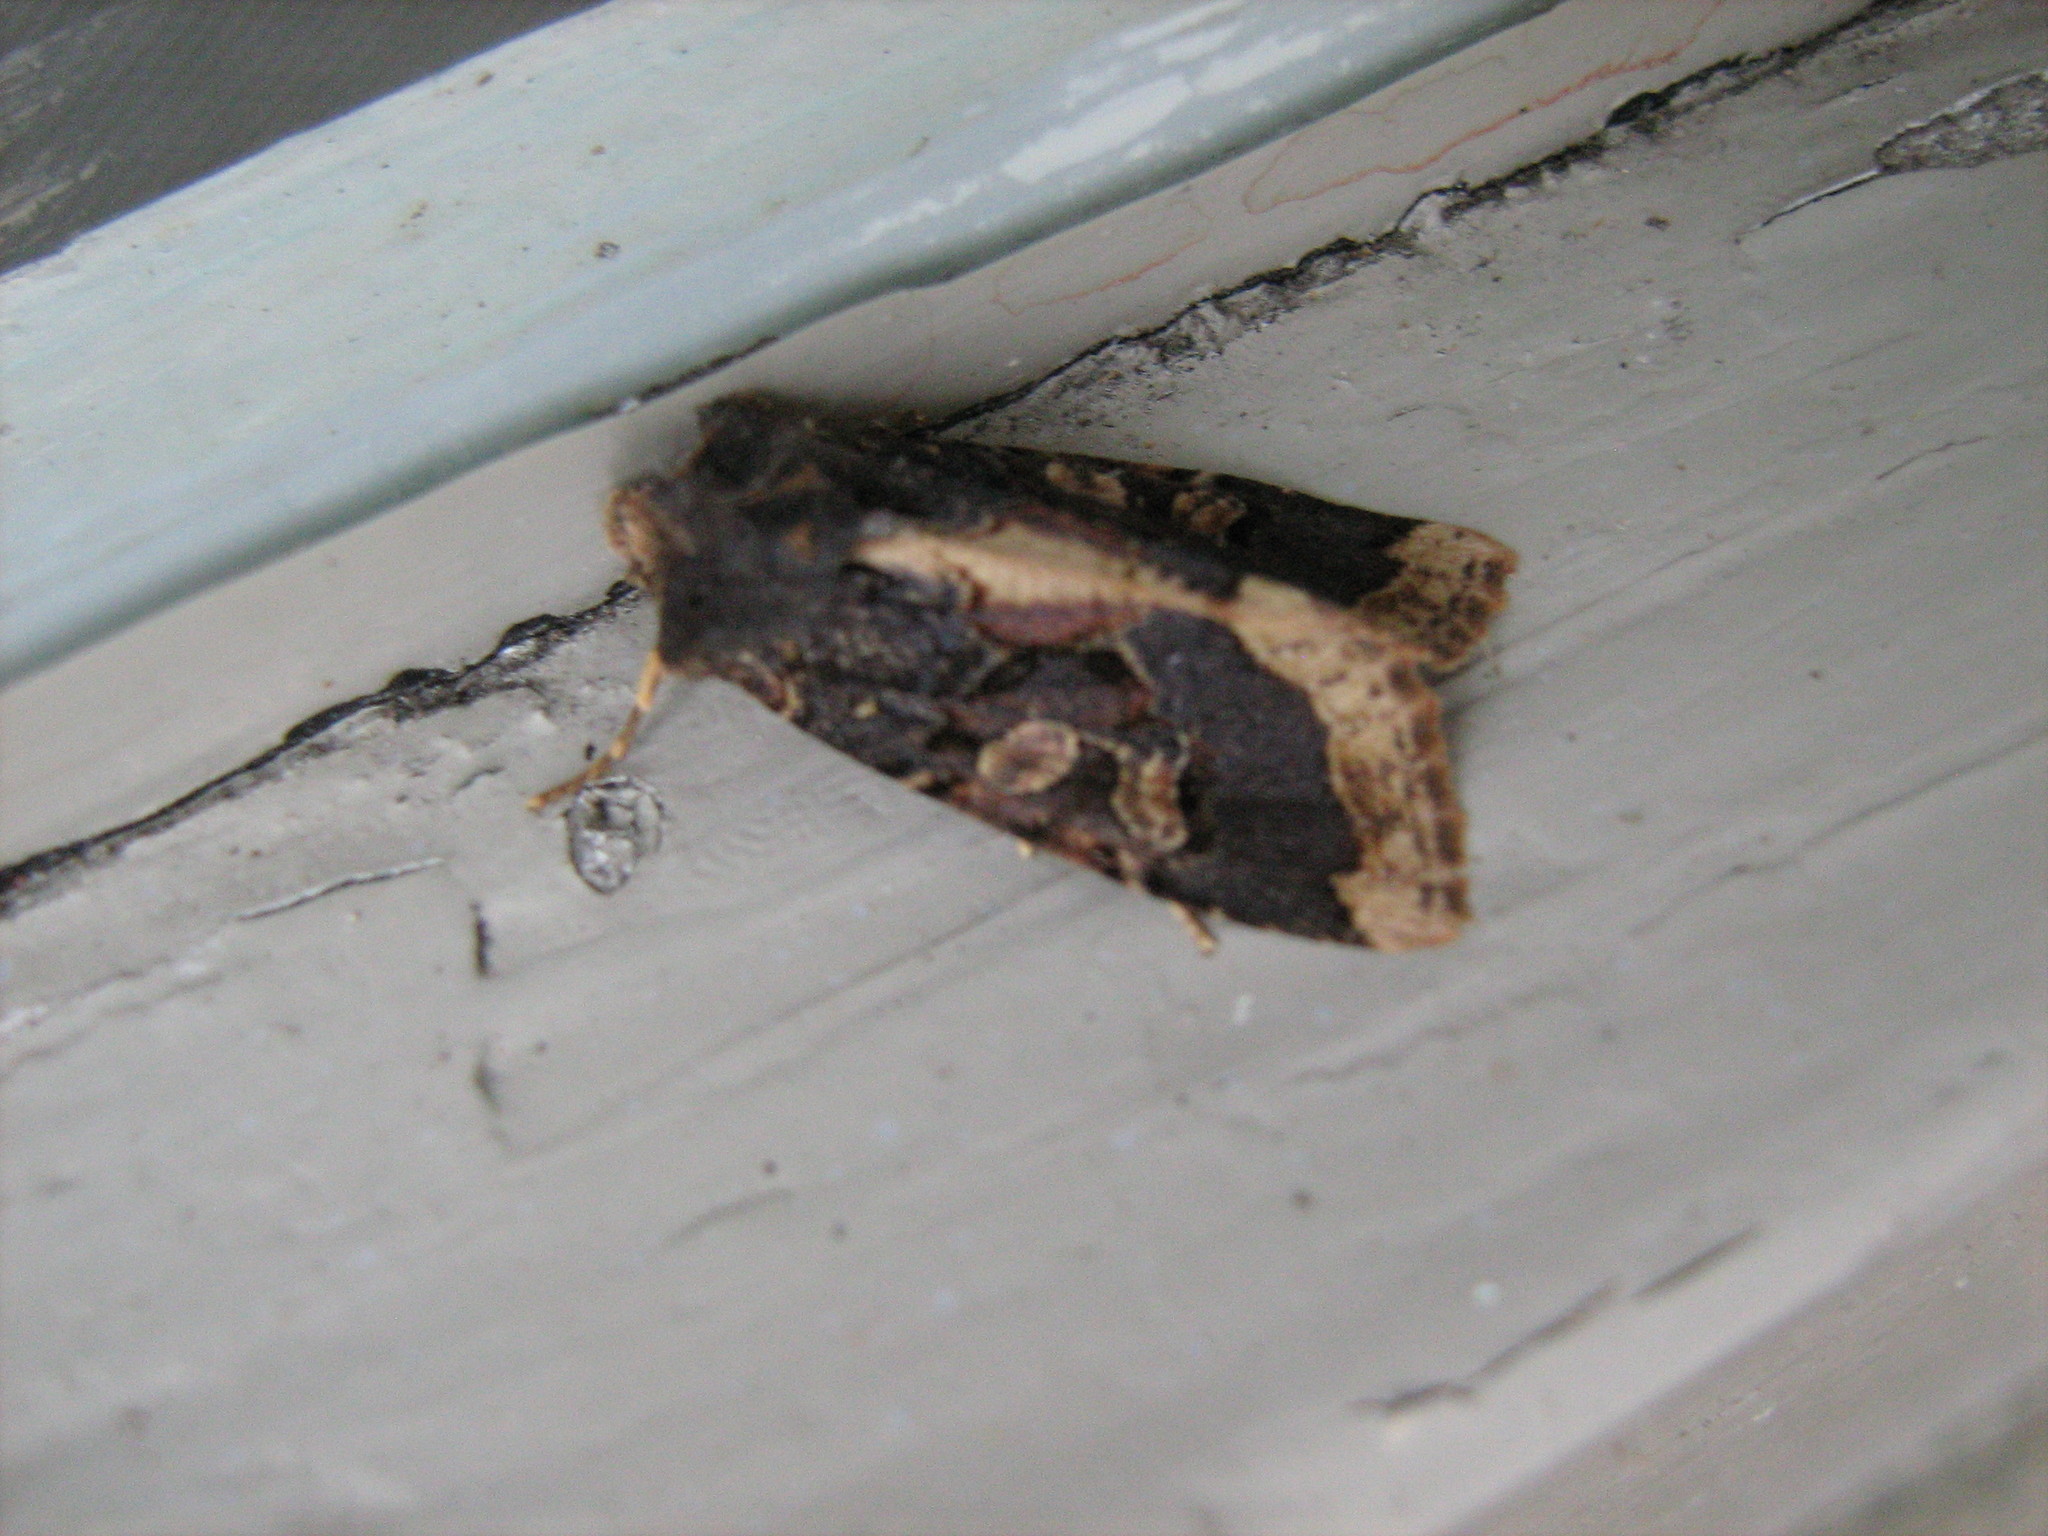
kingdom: Animalia
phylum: Arthropoda
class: Insecta
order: Lepidoptera
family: Noctuidae
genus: Meterana
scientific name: Meterana tartaraea
